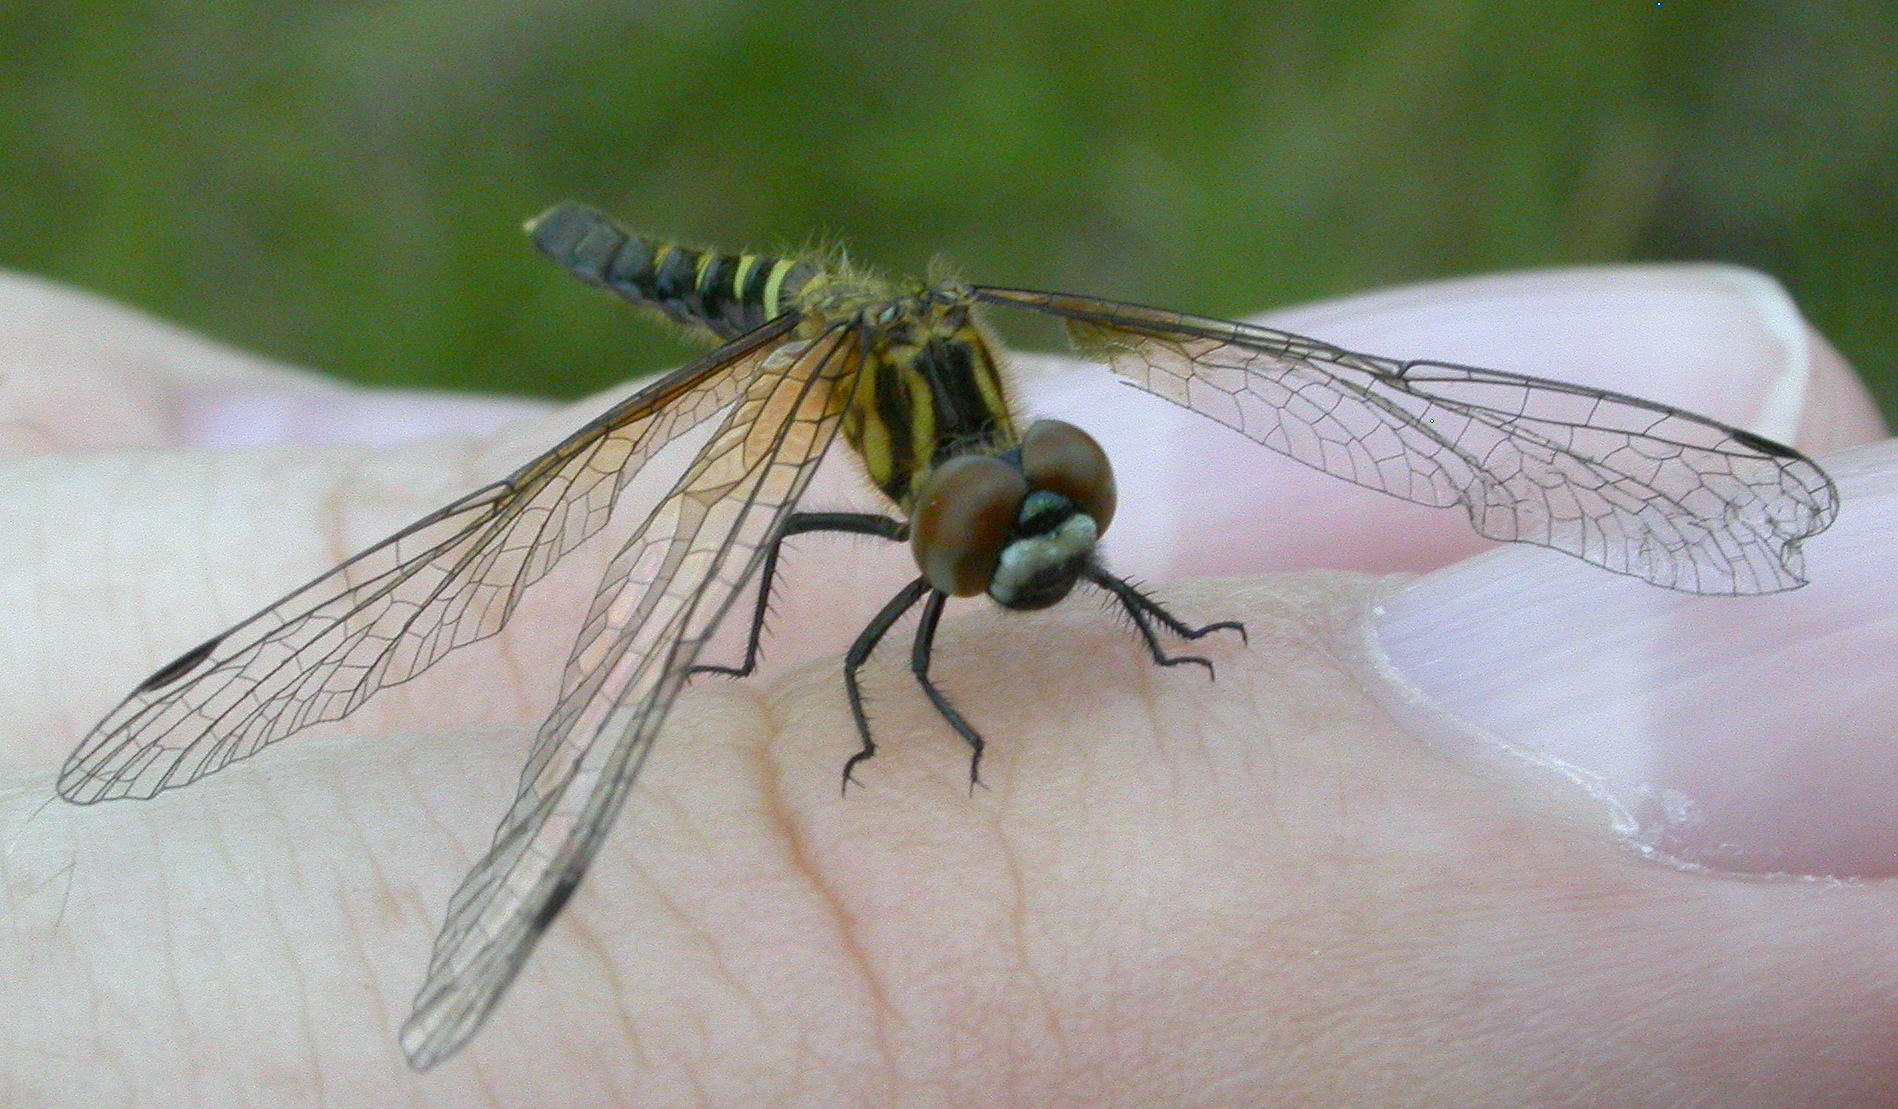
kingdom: Animalia
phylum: Arthropoda
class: Insecta
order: Odonata
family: Libellulidae
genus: Nannothemis
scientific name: Nannothemis bella
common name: Elfin skimmer
